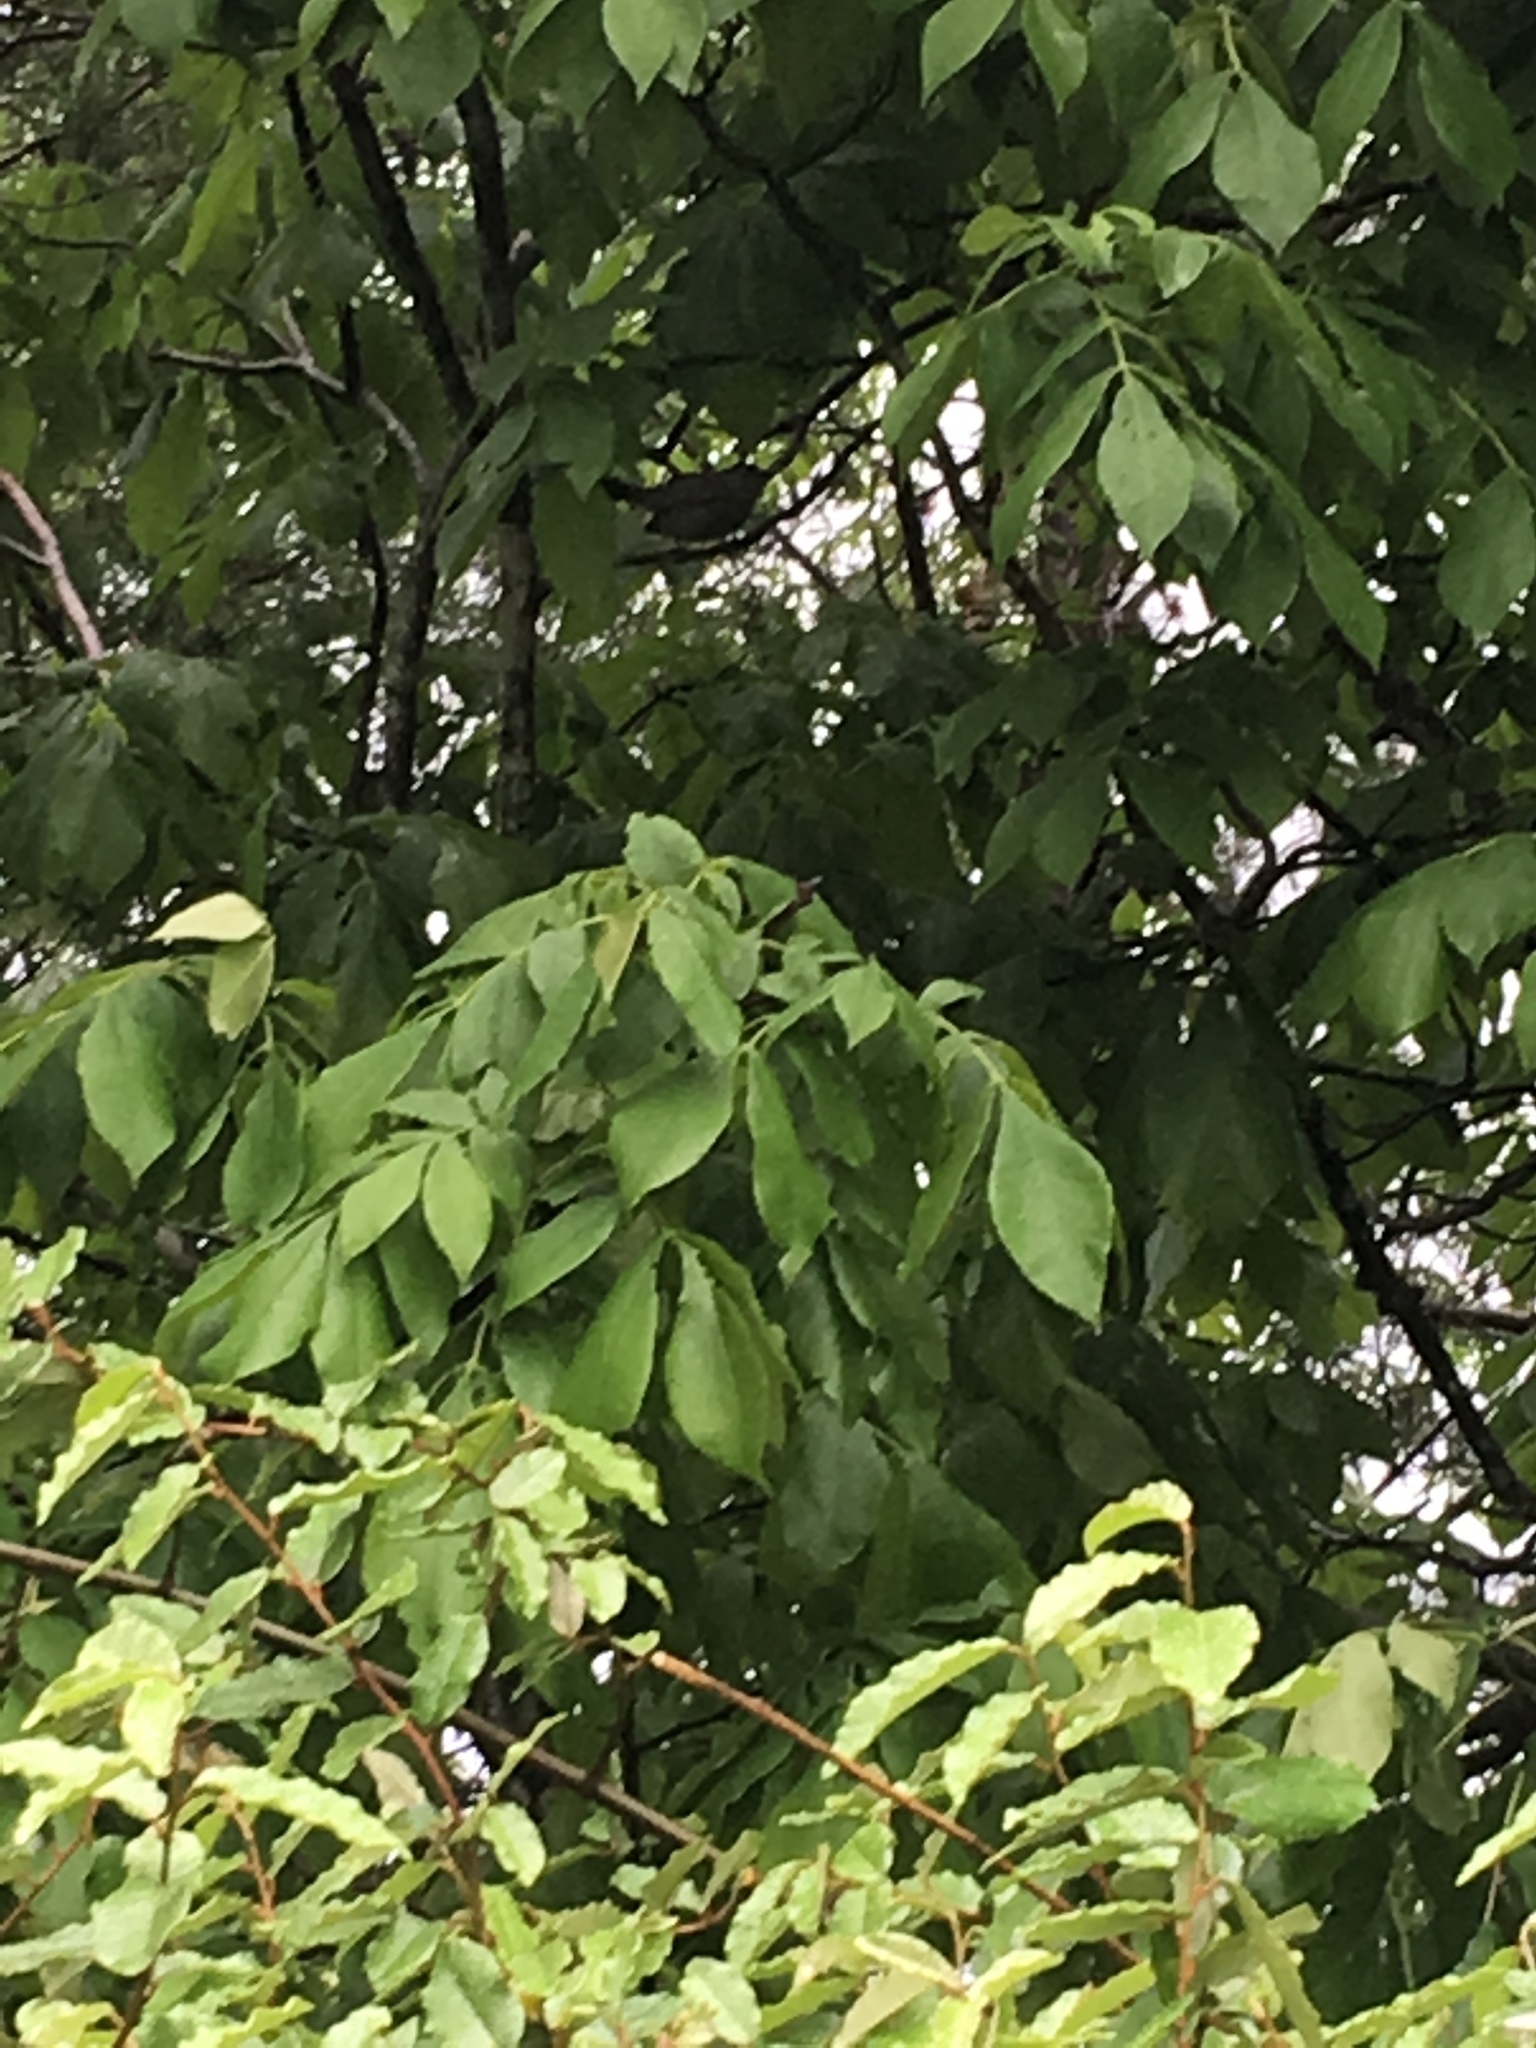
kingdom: Animalia
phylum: Chordata
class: Aves
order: Passeriformes
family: Mimidae
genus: Dumetella
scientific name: Dumetella carolinensis
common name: Gray catbird
